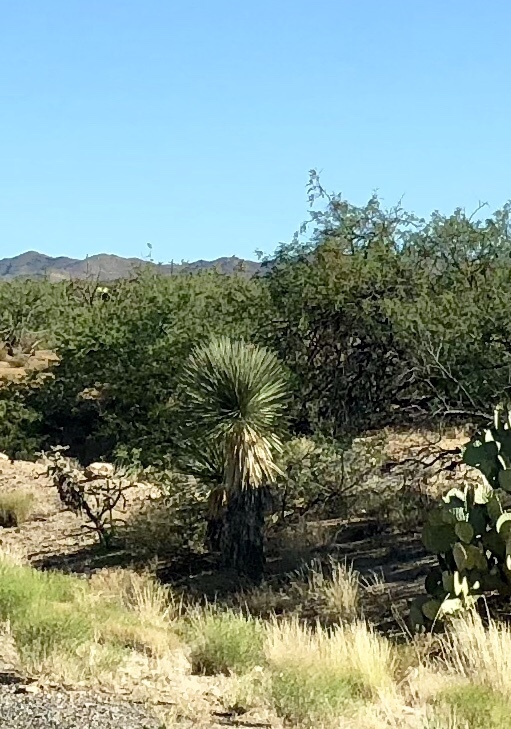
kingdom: Plantae
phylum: Tracheophyta
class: Liliopsida
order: Asparagales
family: Asparagaceae
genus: Yucca
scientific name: Yucca elata
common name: Palmella
